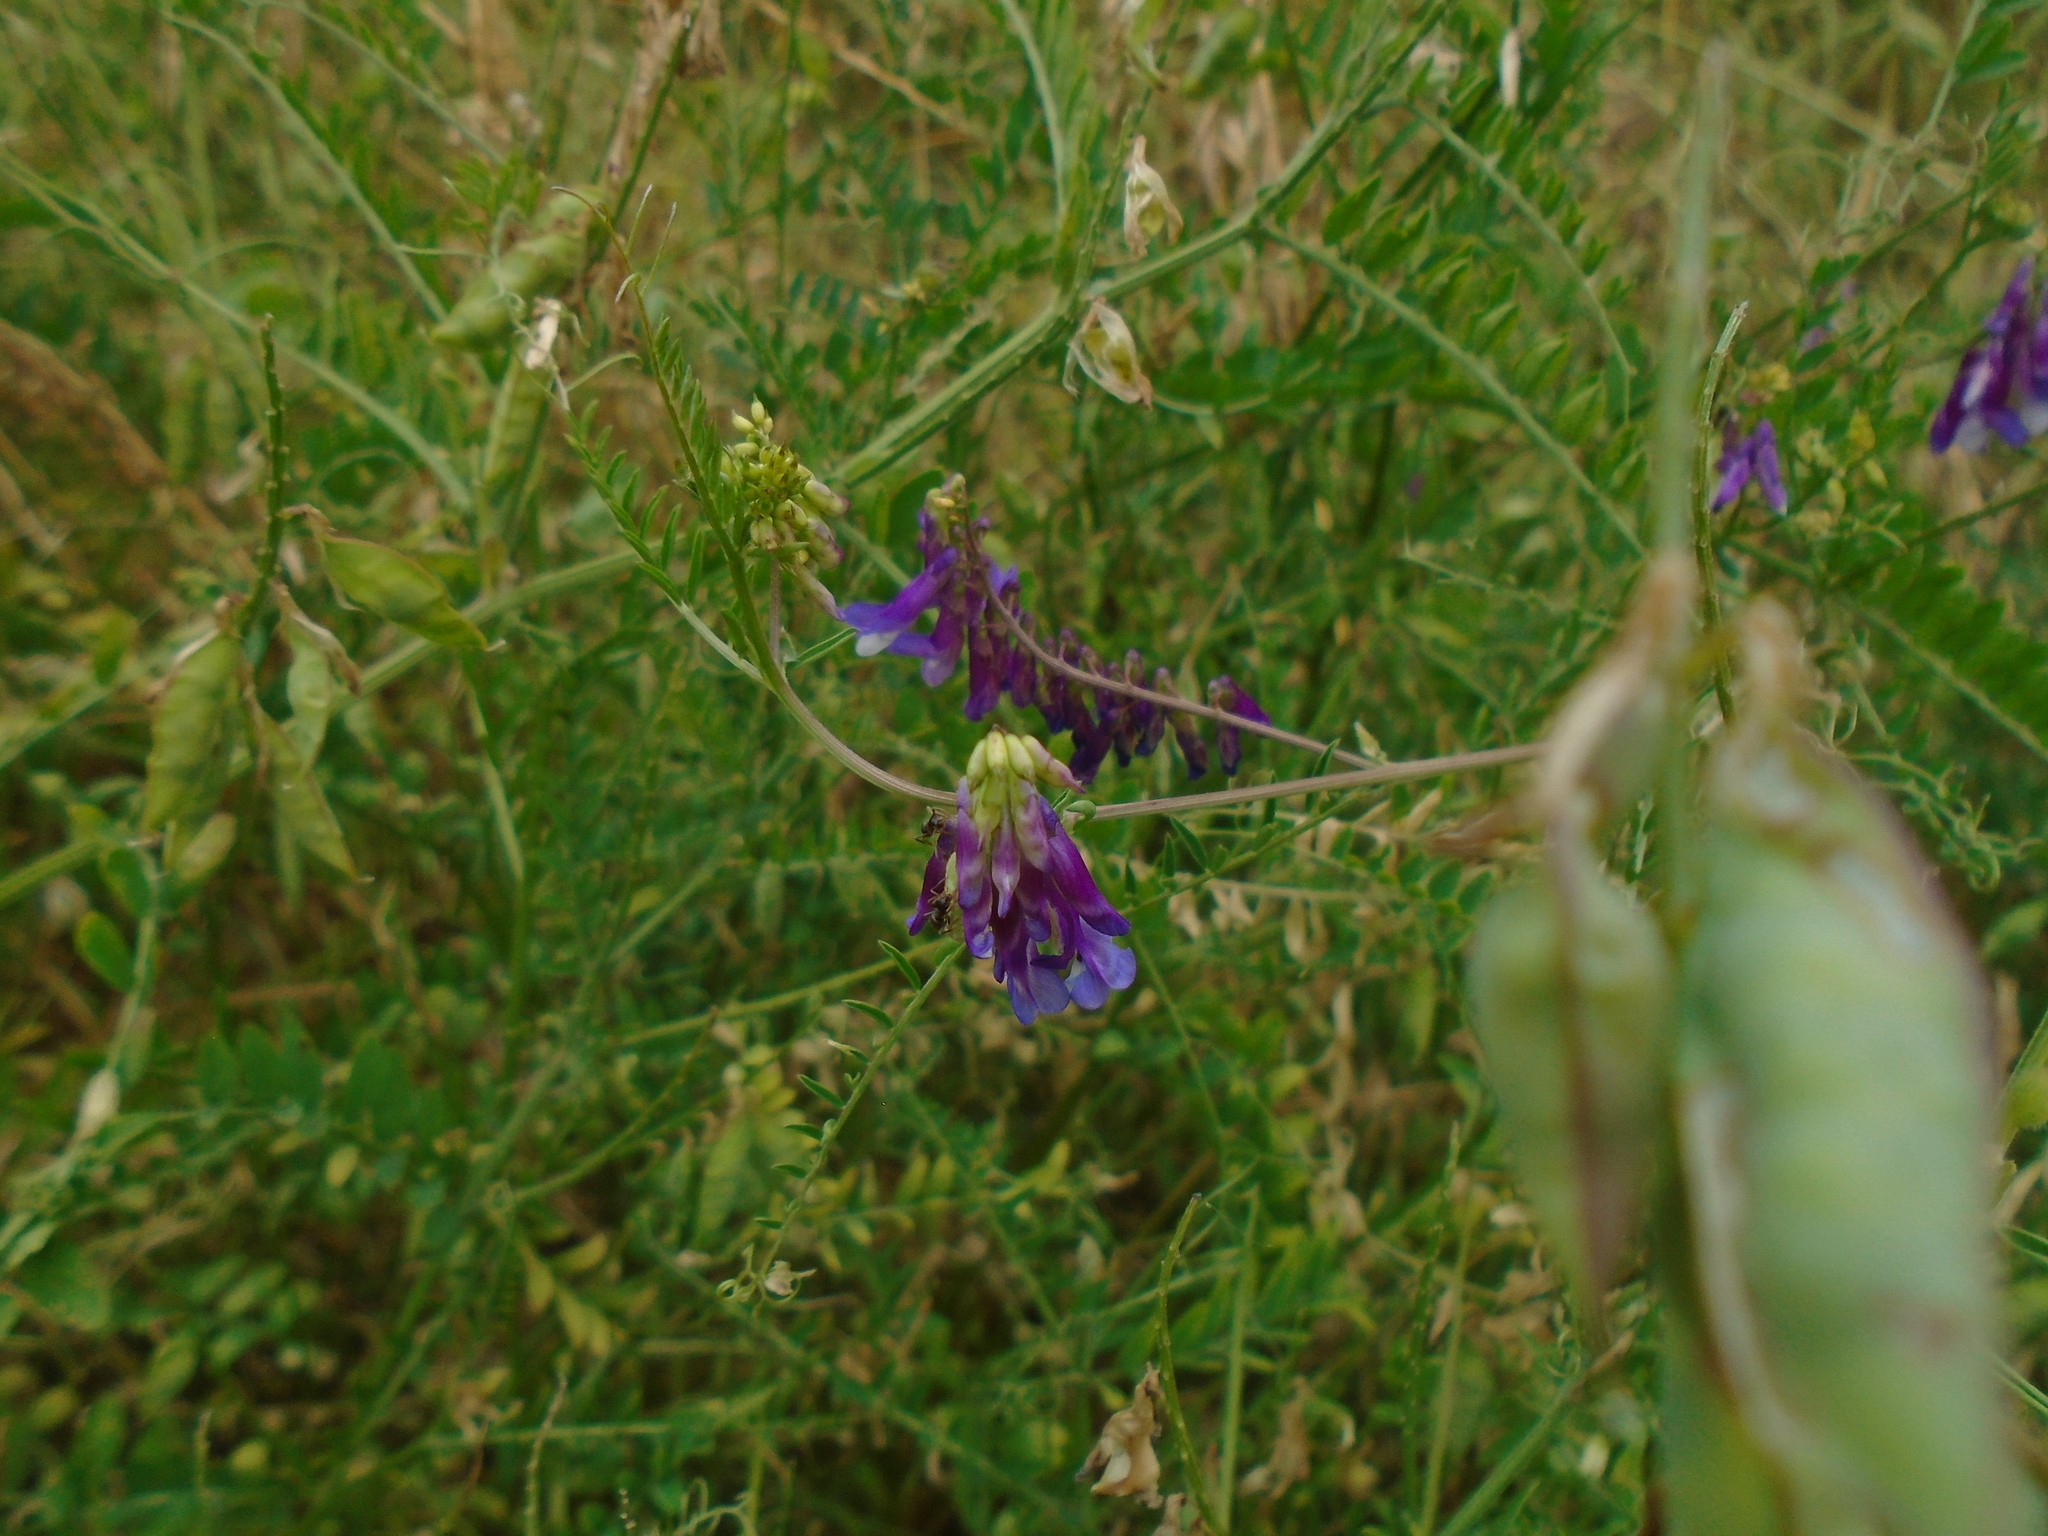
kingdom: Plantae
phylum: Tracheophyta
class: Magnoliopsida
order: Fabales
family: Fabaceae
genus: Vicia
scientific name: Vicia cracca
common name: Bird vetch
